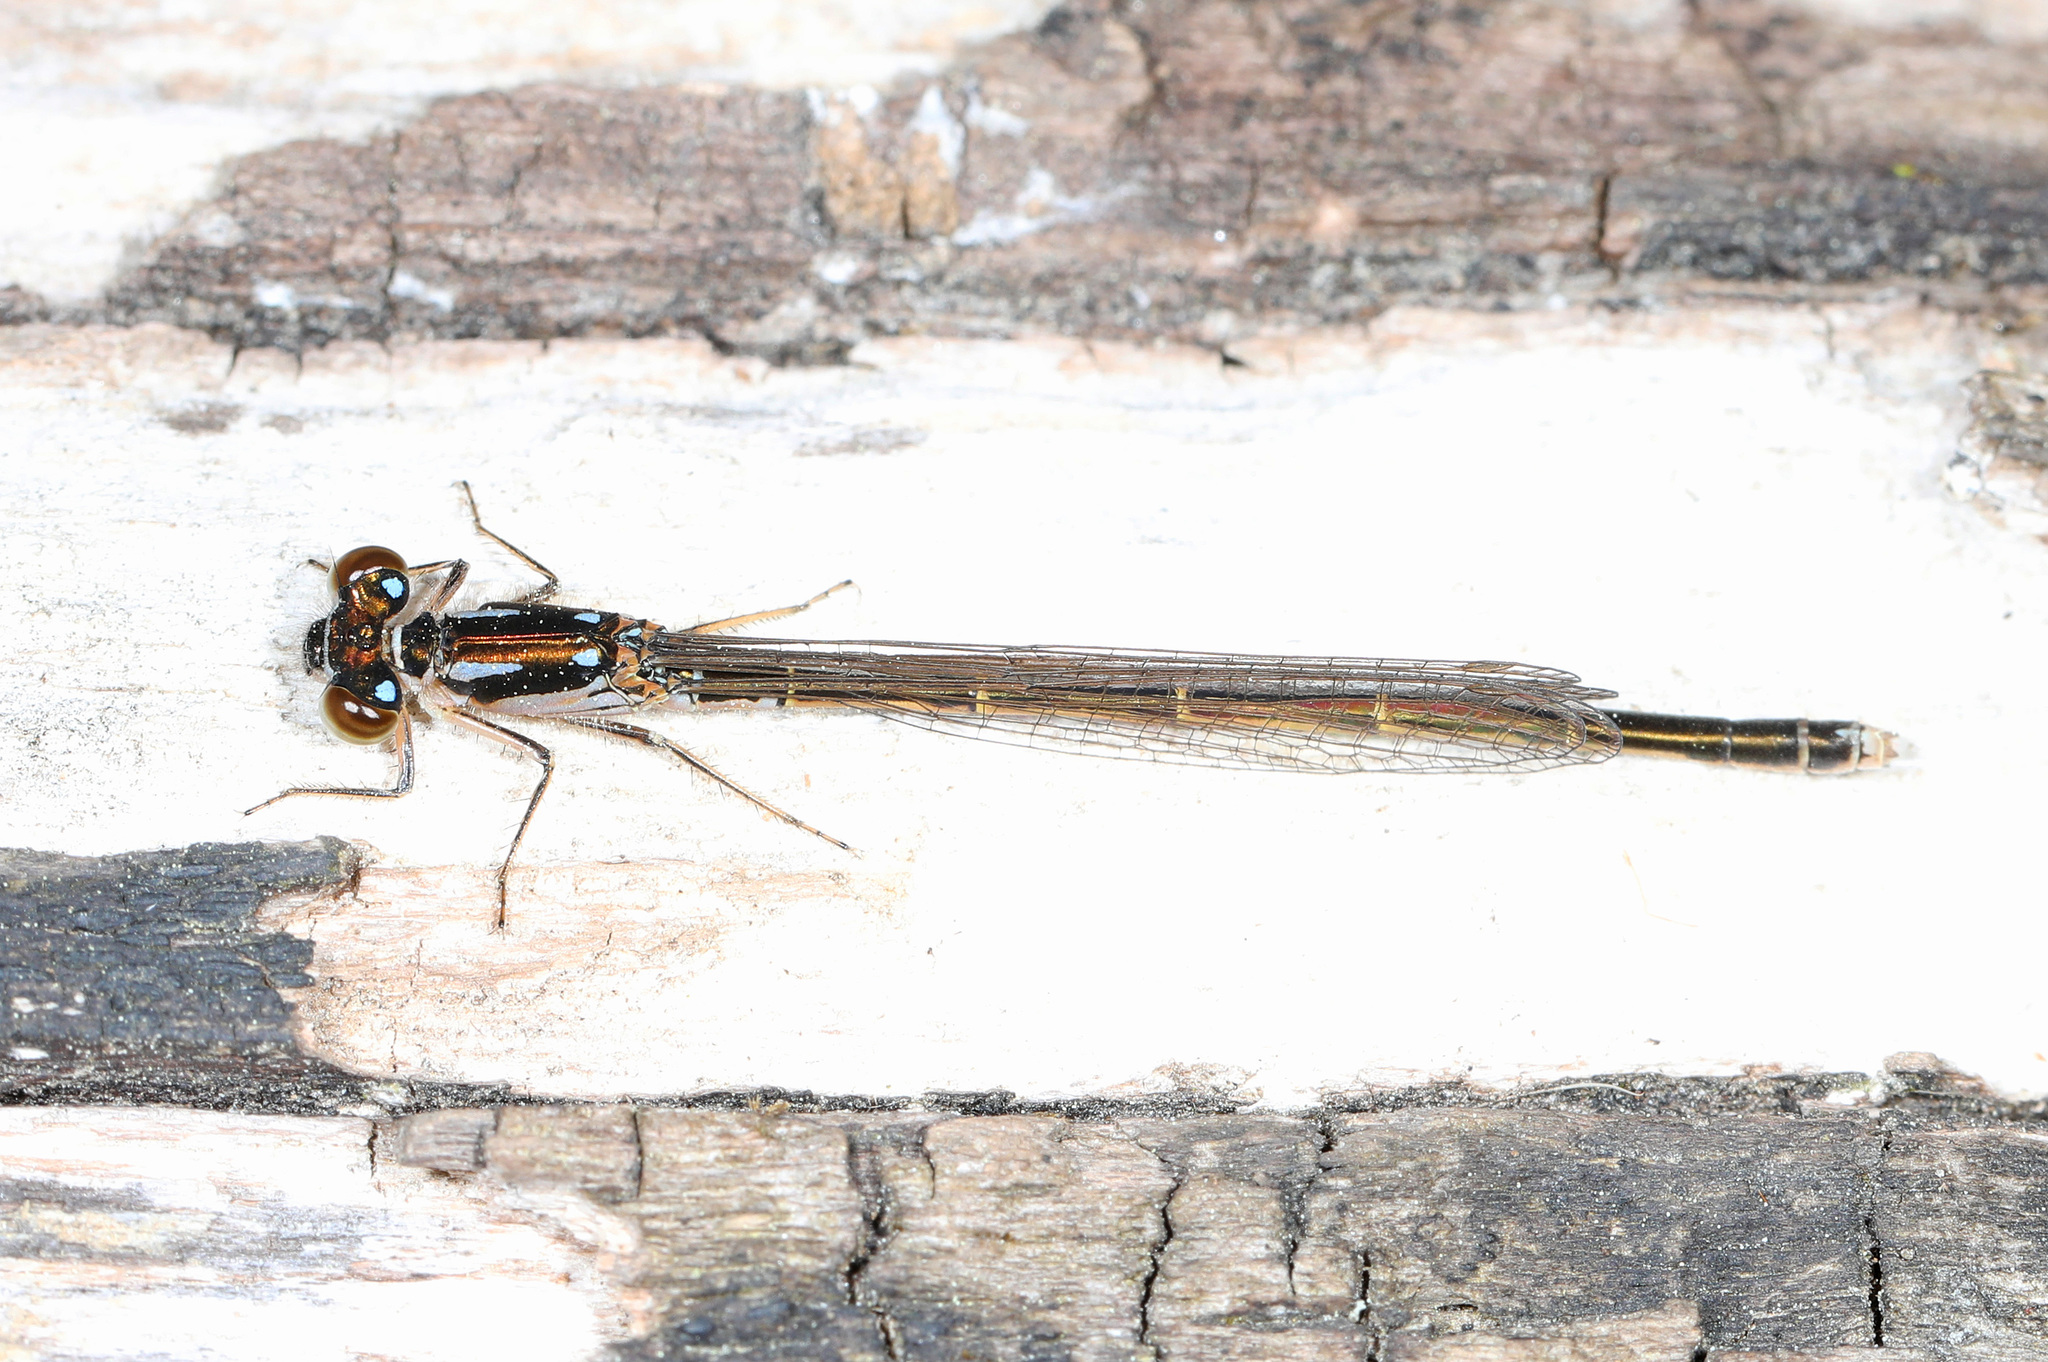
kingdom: Animalia
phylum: Arthropoda
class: Insecta
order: Odonata
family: Coenagrionidae
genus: Ischnura
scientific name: Ischnura posita
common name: Fragile forktail
